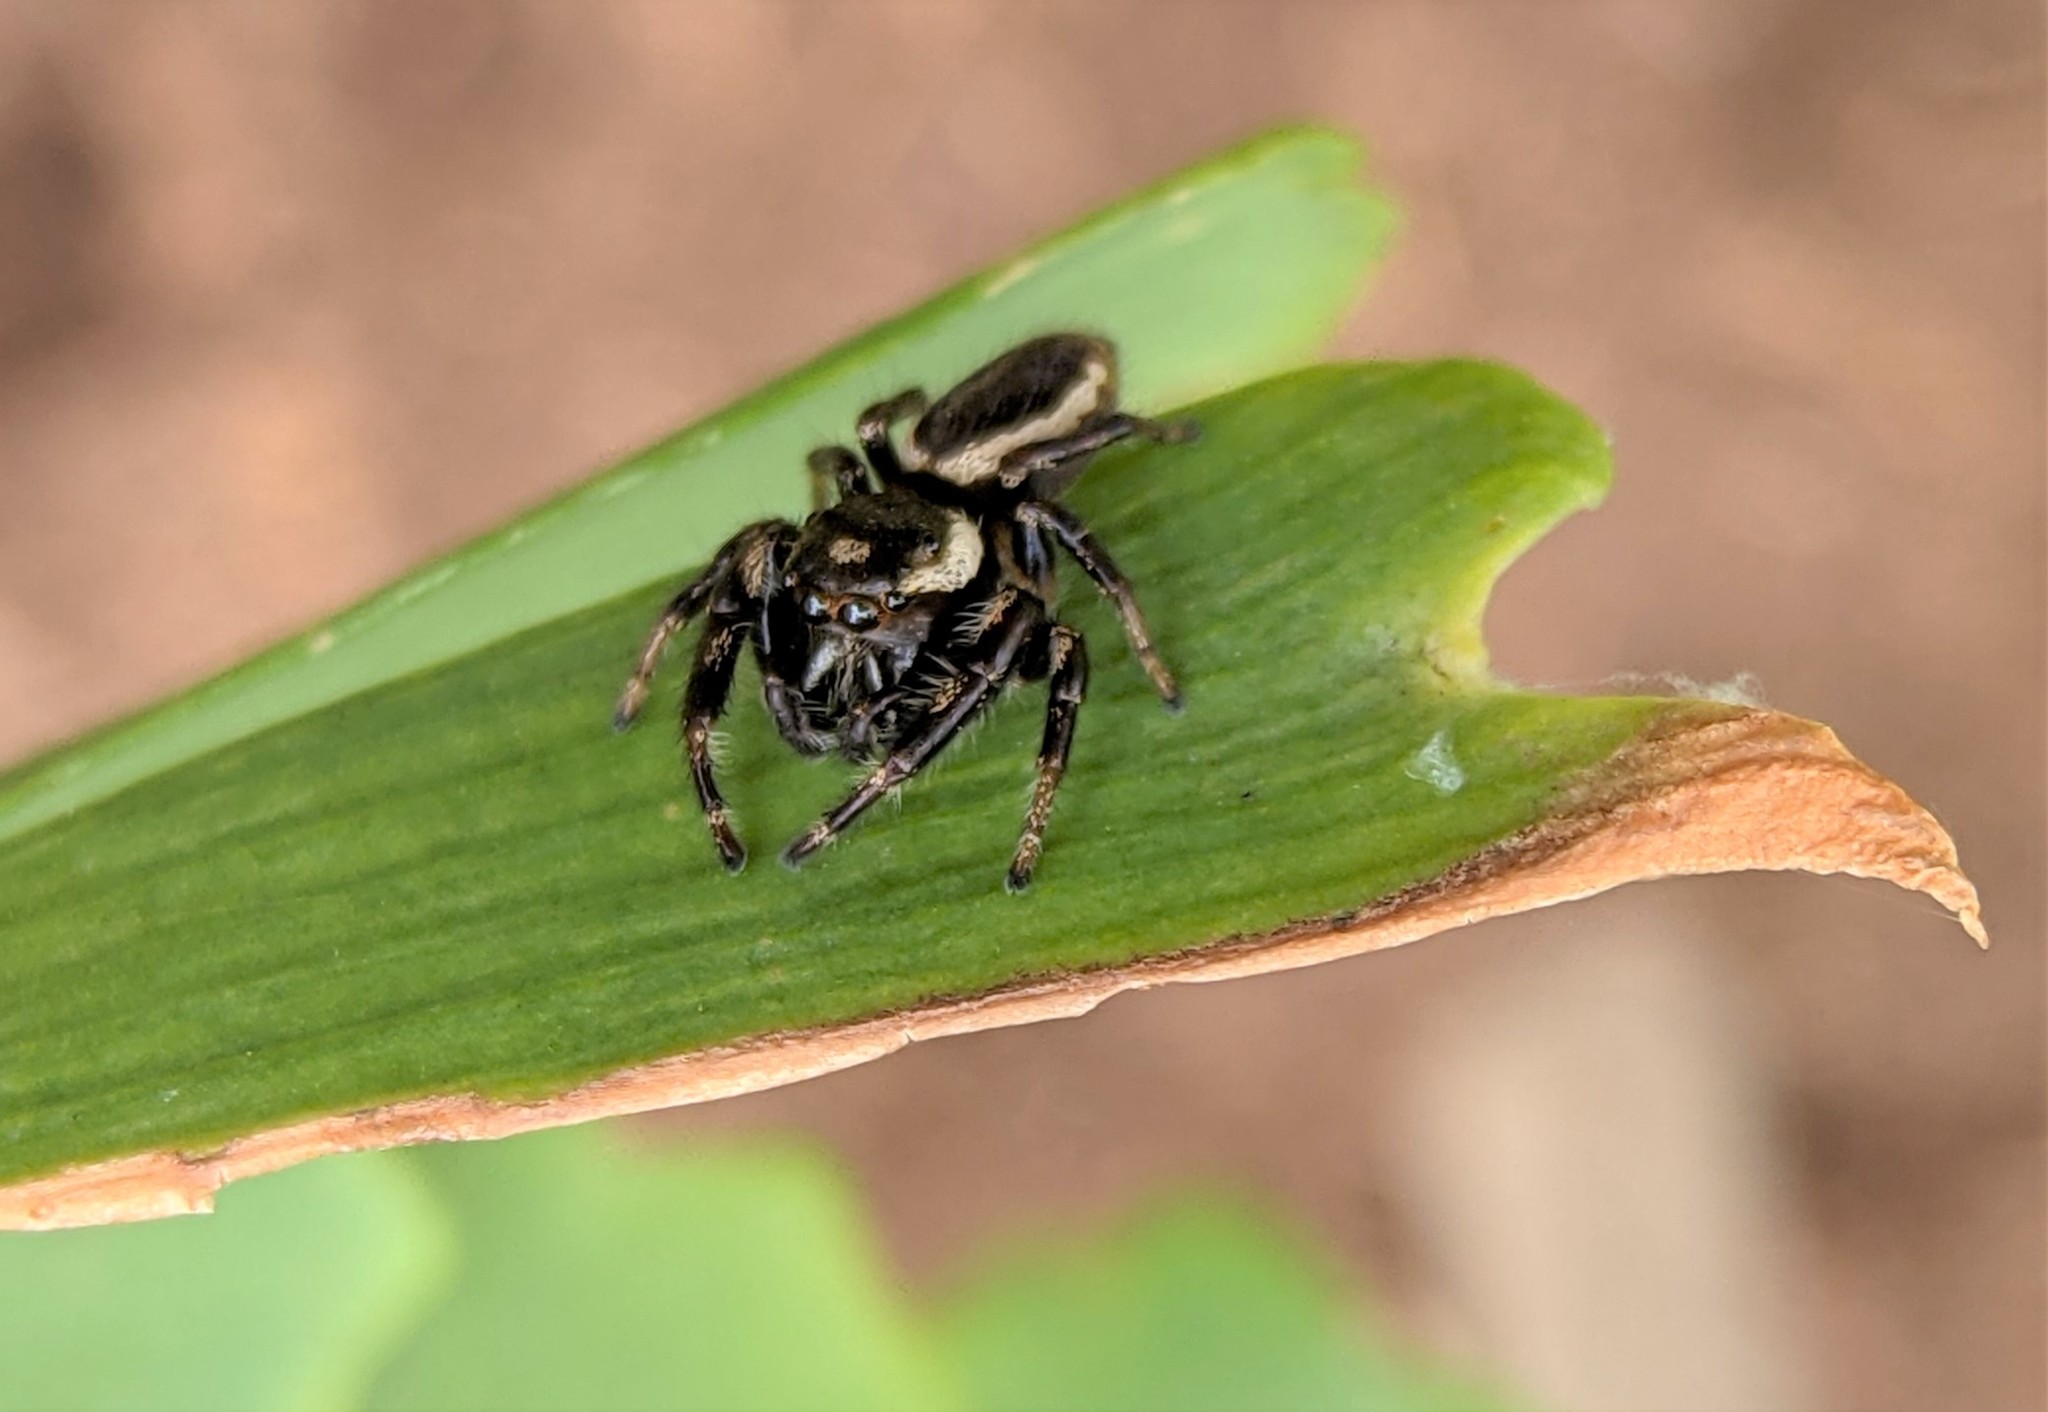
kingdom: Animalia
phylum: Arthropoda
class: Arachnida
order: Araneae
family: Salticidae
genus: Eris
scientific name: Eris militaris
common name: Bronze jumper
